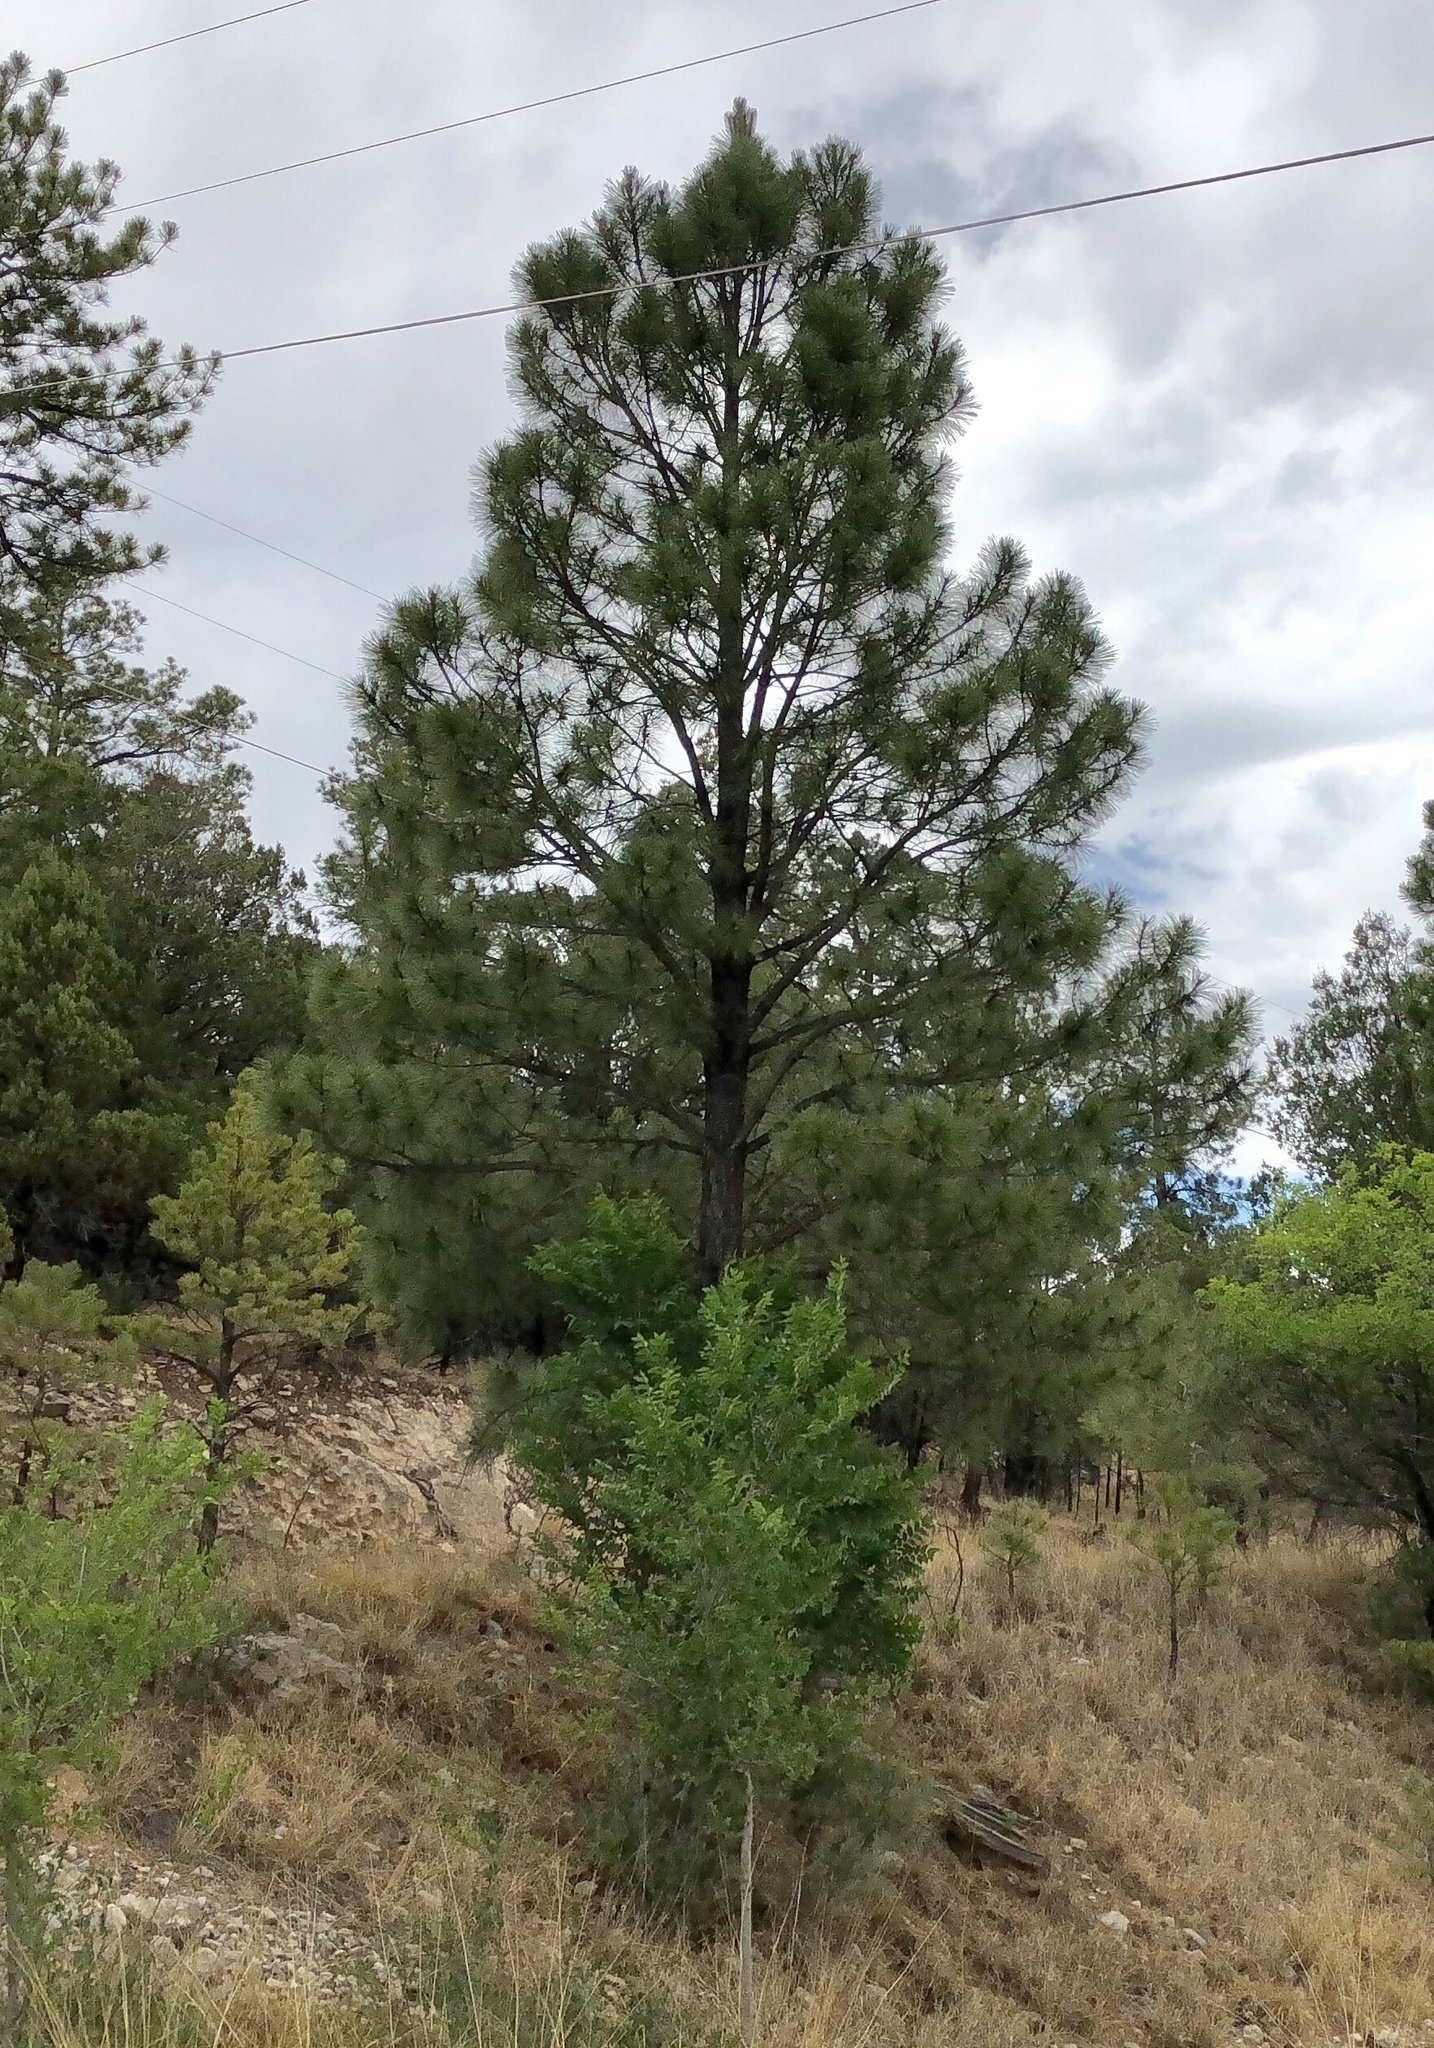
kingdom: Plantae
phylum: Tracheophyta
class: Pinopsida
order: Pinales
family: Pinaceae
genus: Pinus
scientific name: Pinus ponderosa
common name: Western yellow-pine
